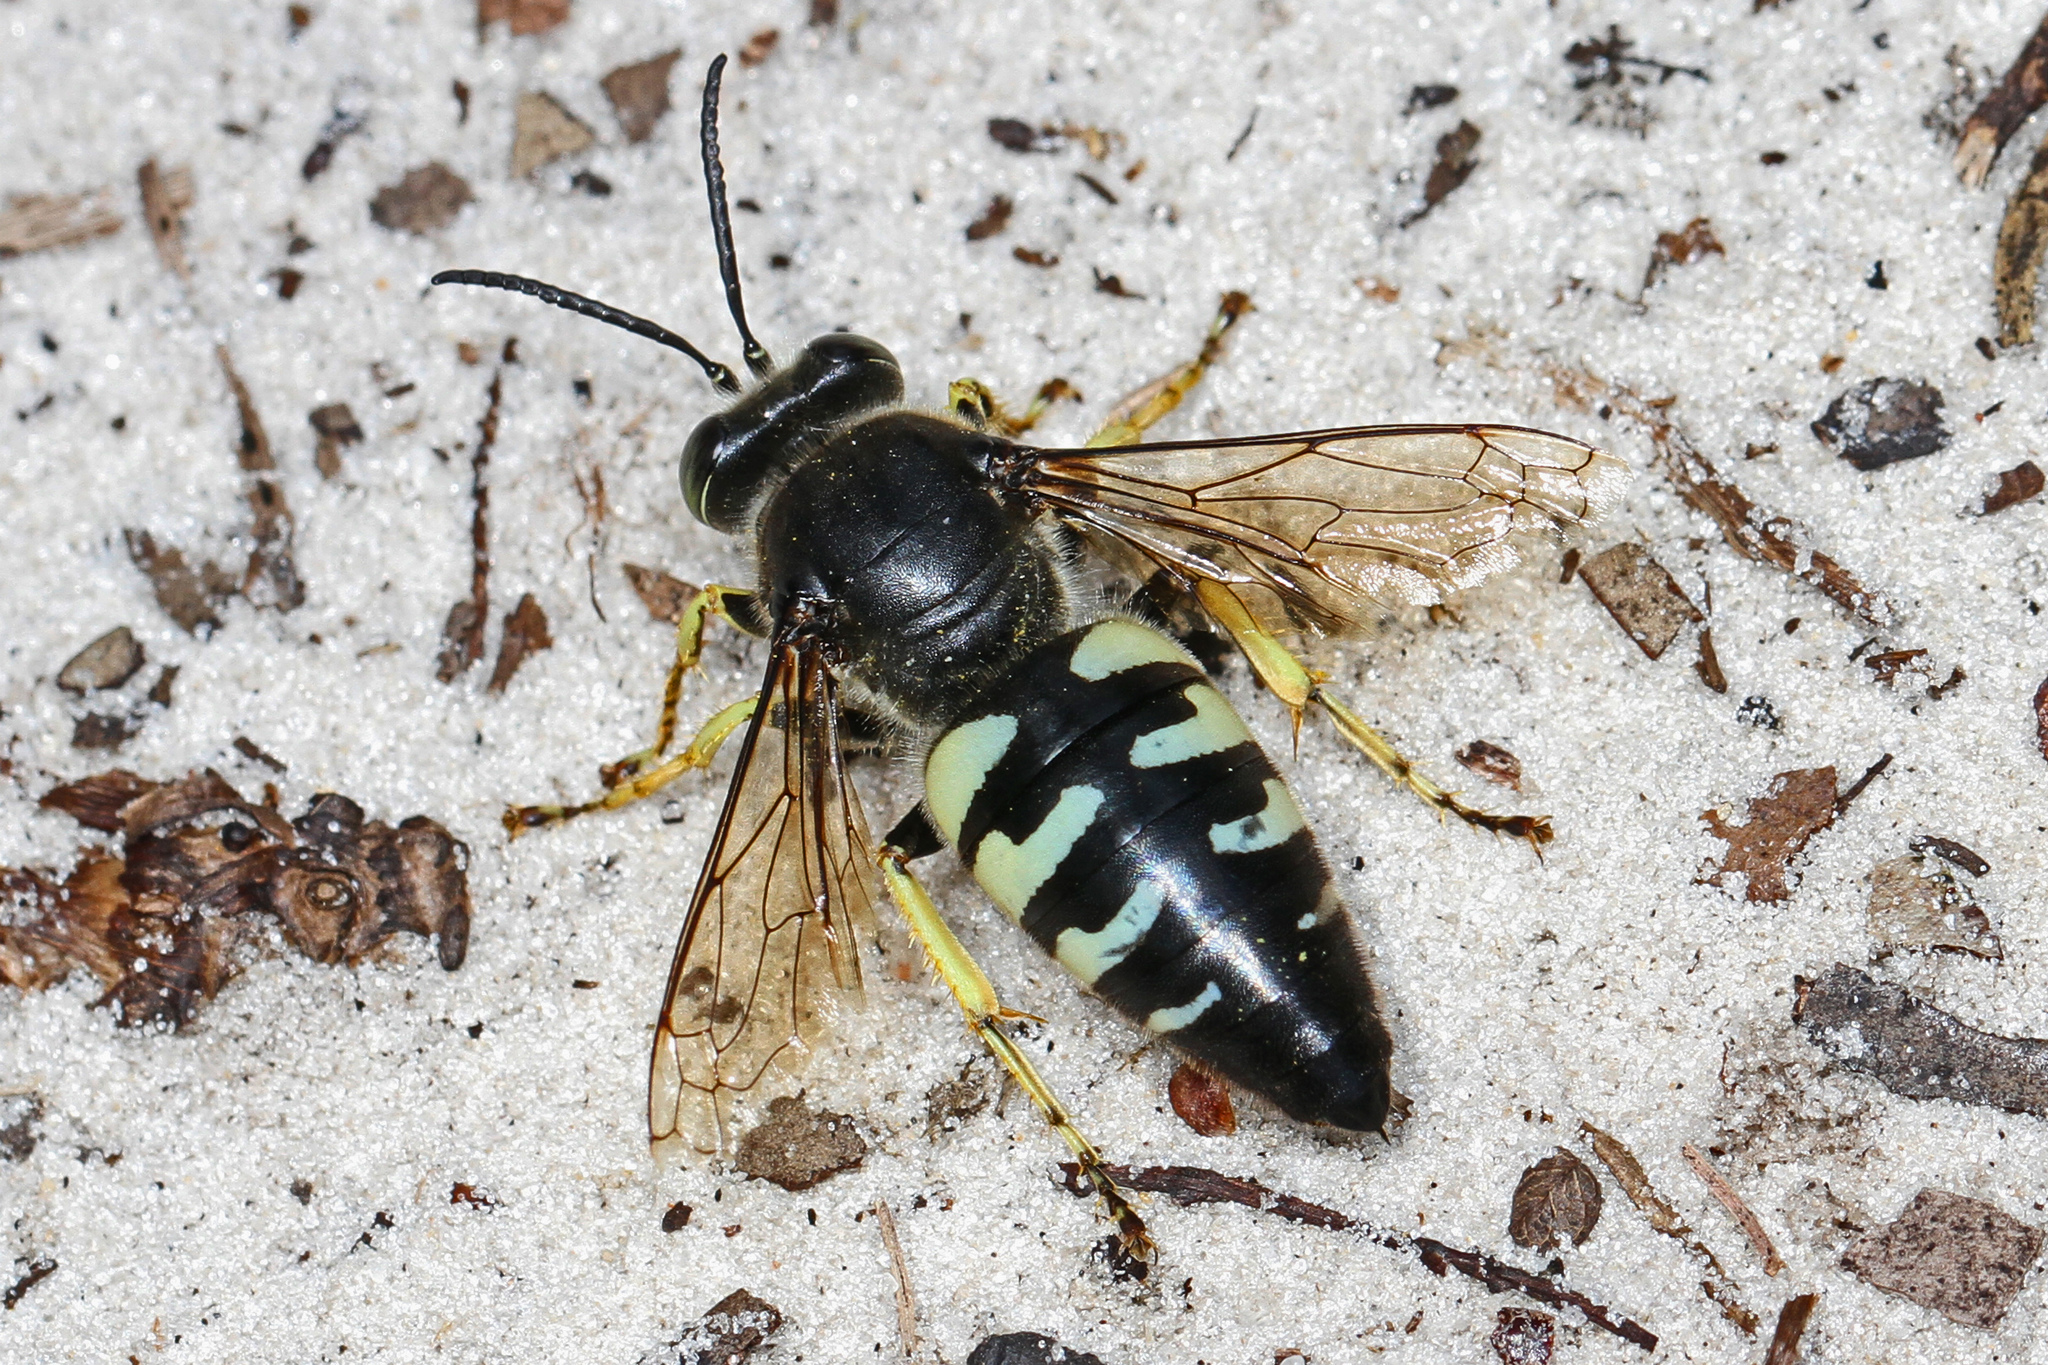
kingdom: Animalia
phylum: Arthropoda
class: Insecta
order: Hymenoptera
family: Crabronidae
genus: Bembix
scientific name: Bembix belfragei
